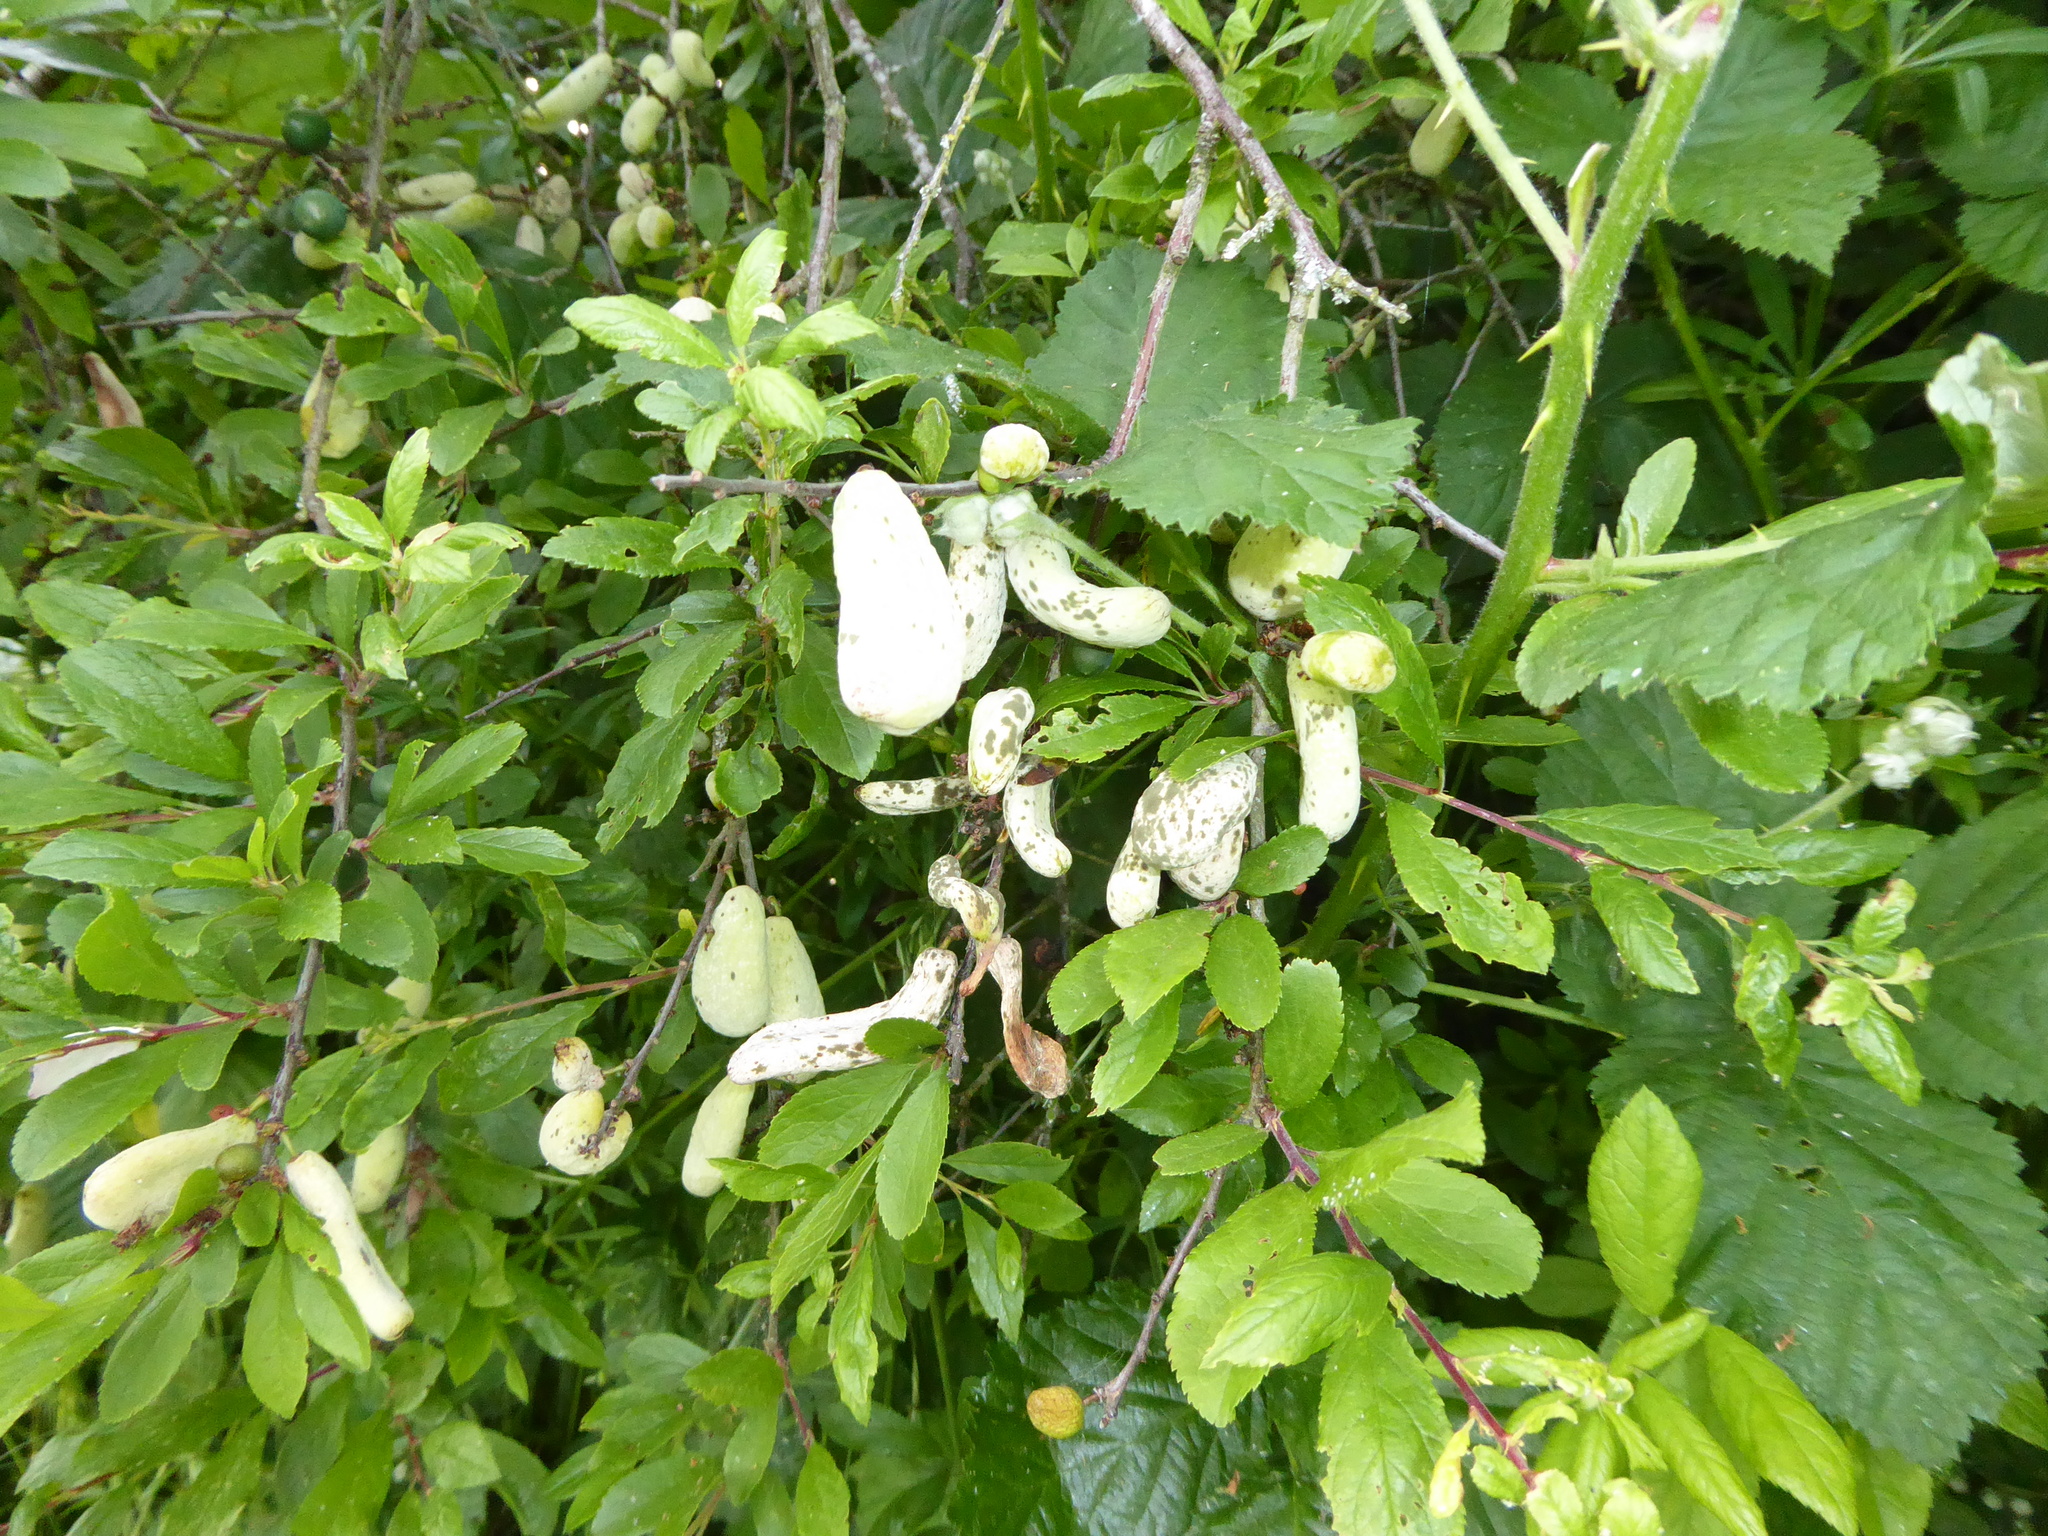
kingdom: Plantae
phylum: Tracheophyta
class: Magnoliopsida
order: Rosales
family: Rosaceae
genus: Prunus
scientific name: Prunus spinosa
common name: Blackthorn
